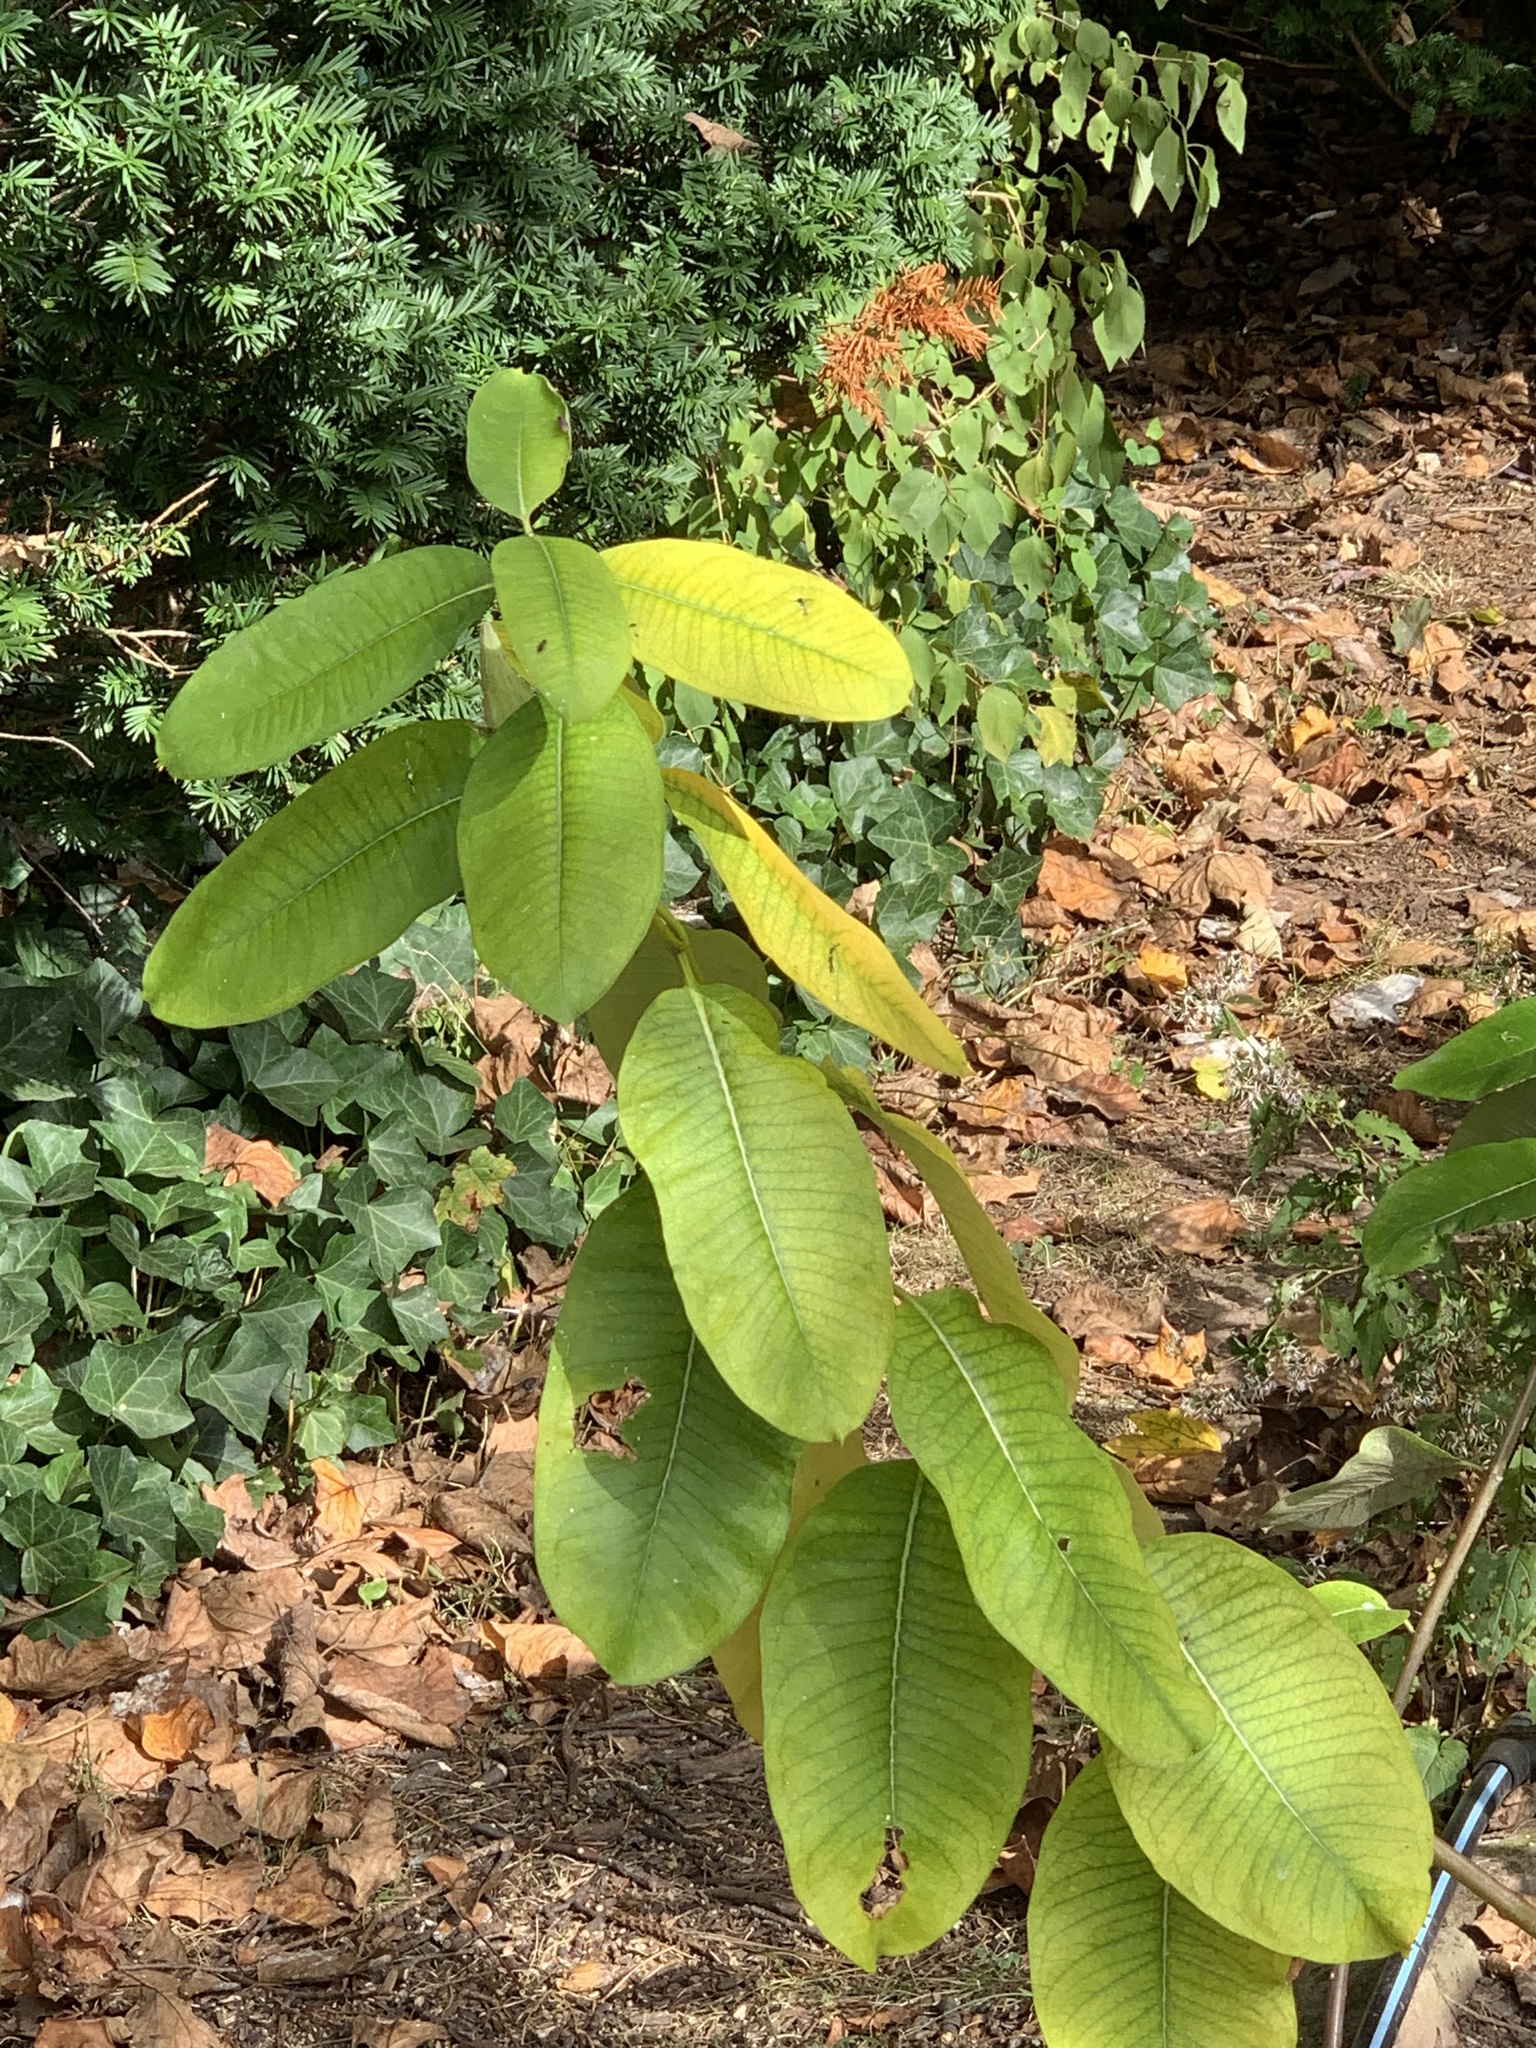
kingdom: Plantae
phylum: Tracheophyta
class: Magnoliopsida
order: Gentianales
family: Apocynaceae
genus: Asclepias
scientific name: Asclepias syriaca
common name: Common milkweed
